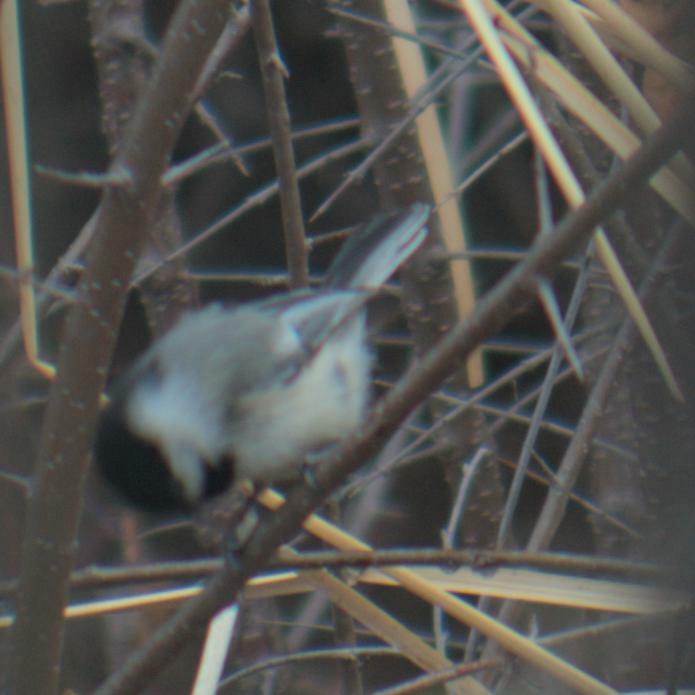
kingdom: Animalia
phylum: Chordata
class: Aves
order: Passeriformes
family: Paridae
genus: Poecile
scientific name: Poecile atricapillus
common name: Black-capped chickadee
